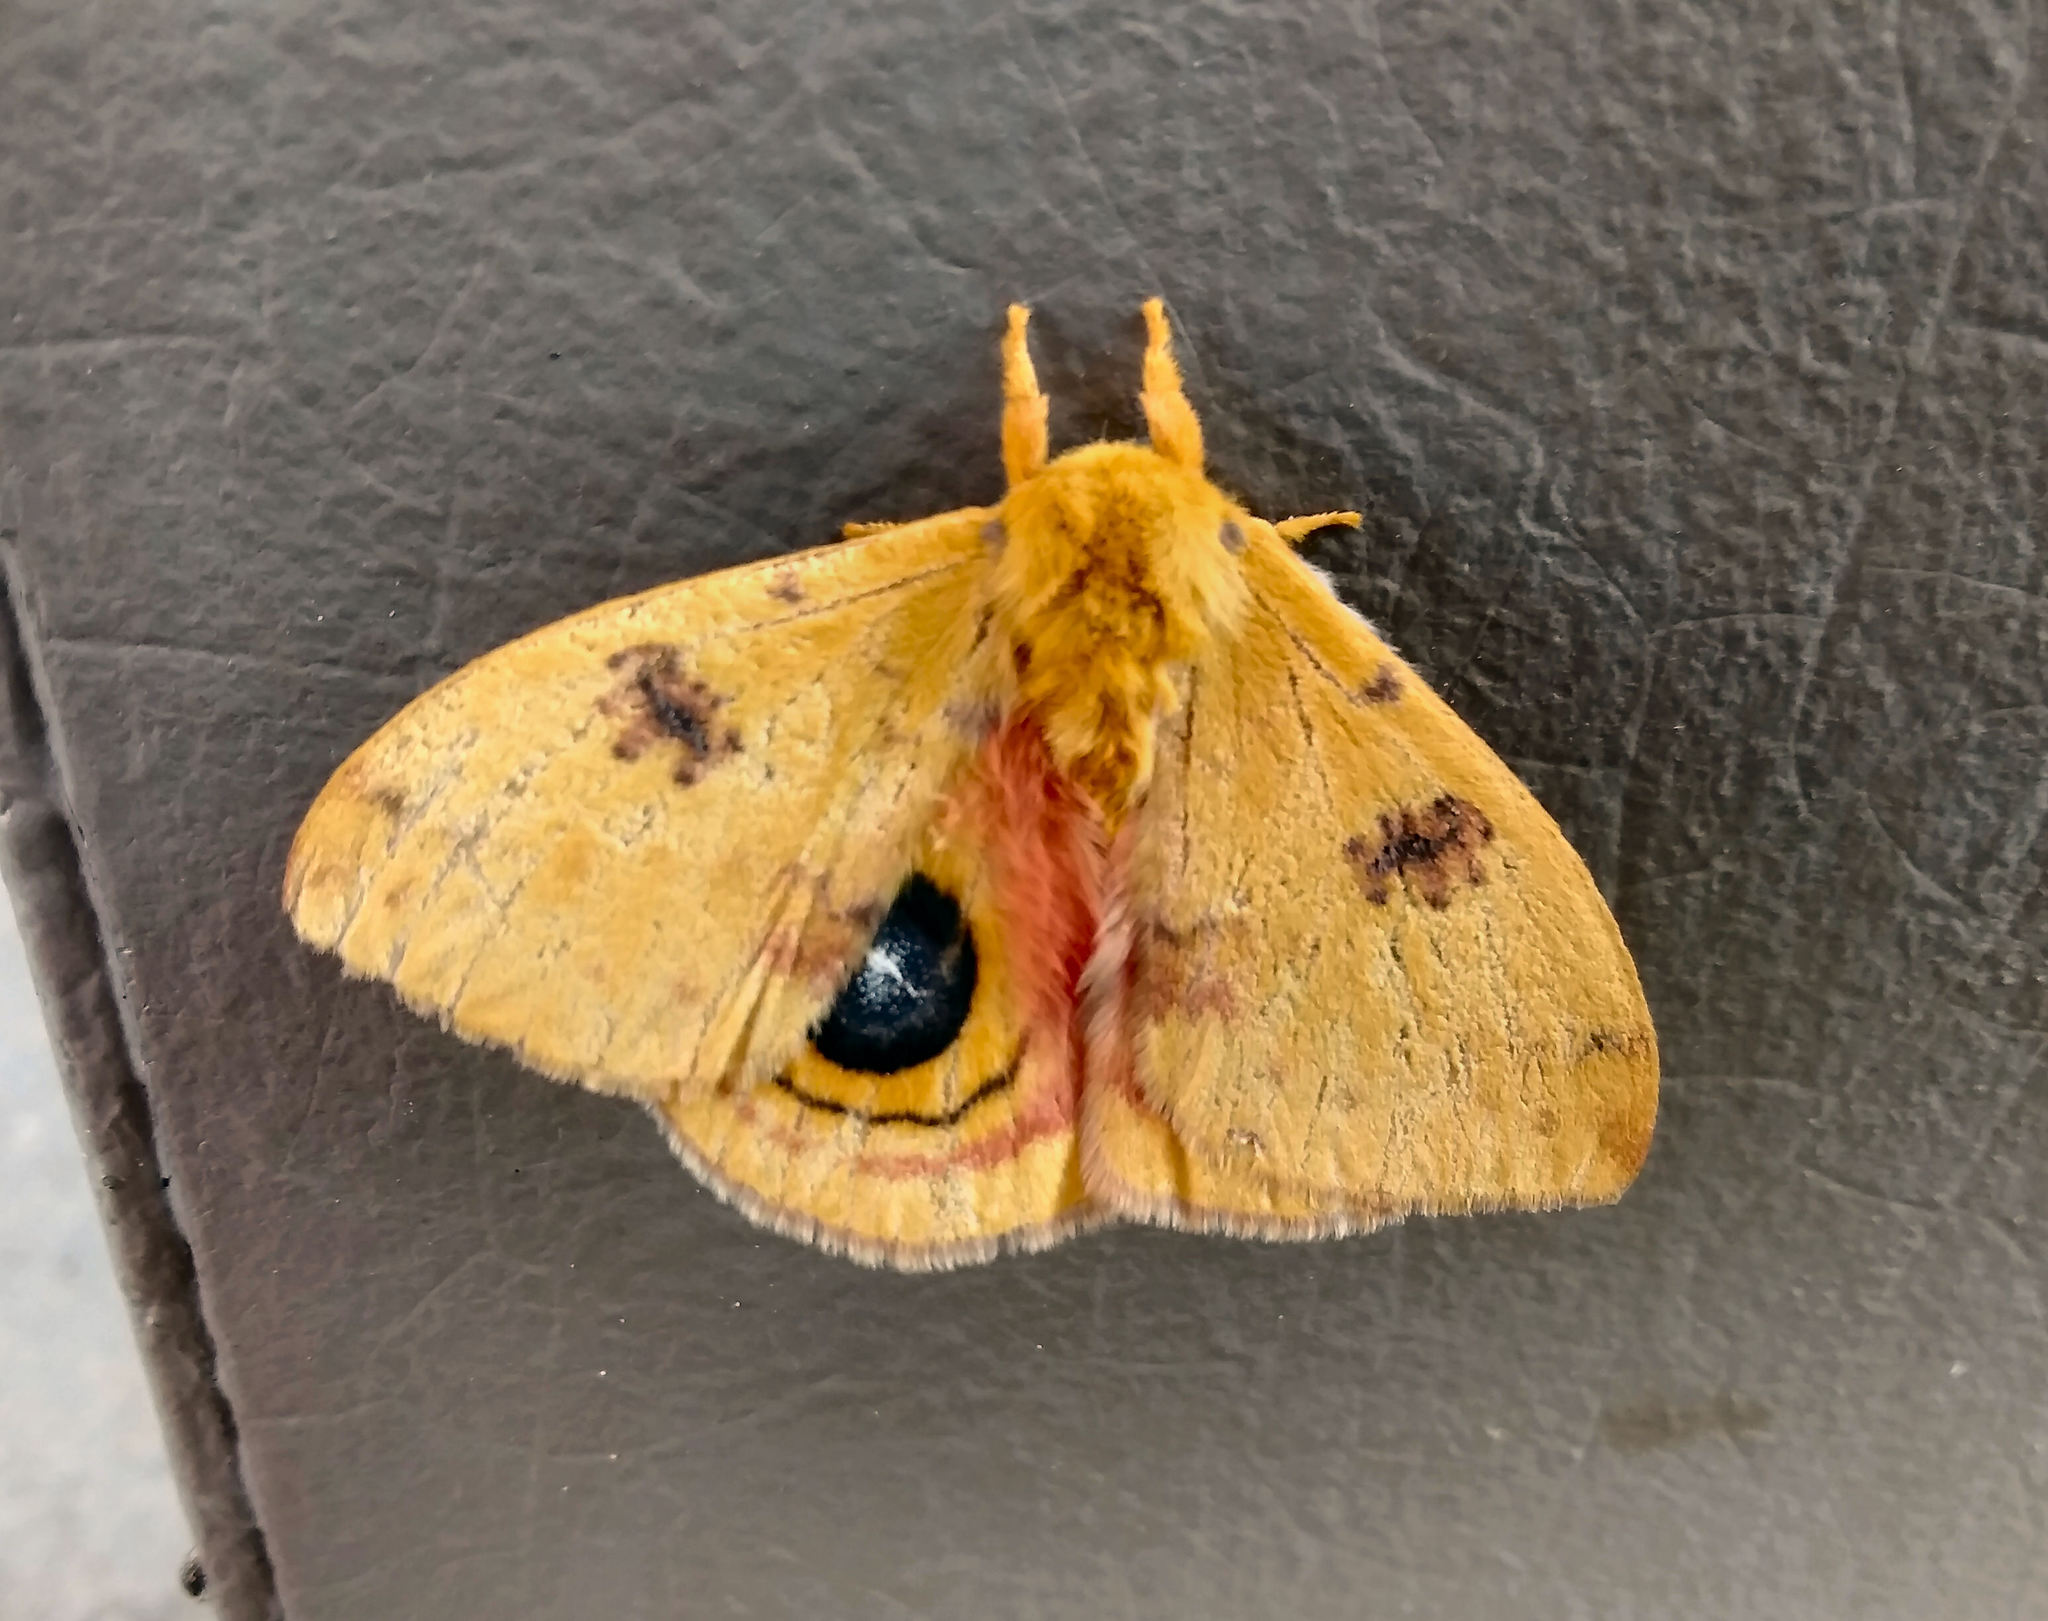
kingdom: Animalia
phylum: Arthropoda
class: Insecta
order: Lepidoptera
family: Saturniidae
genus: Automeris
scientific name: Automeris io
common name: Io moth
